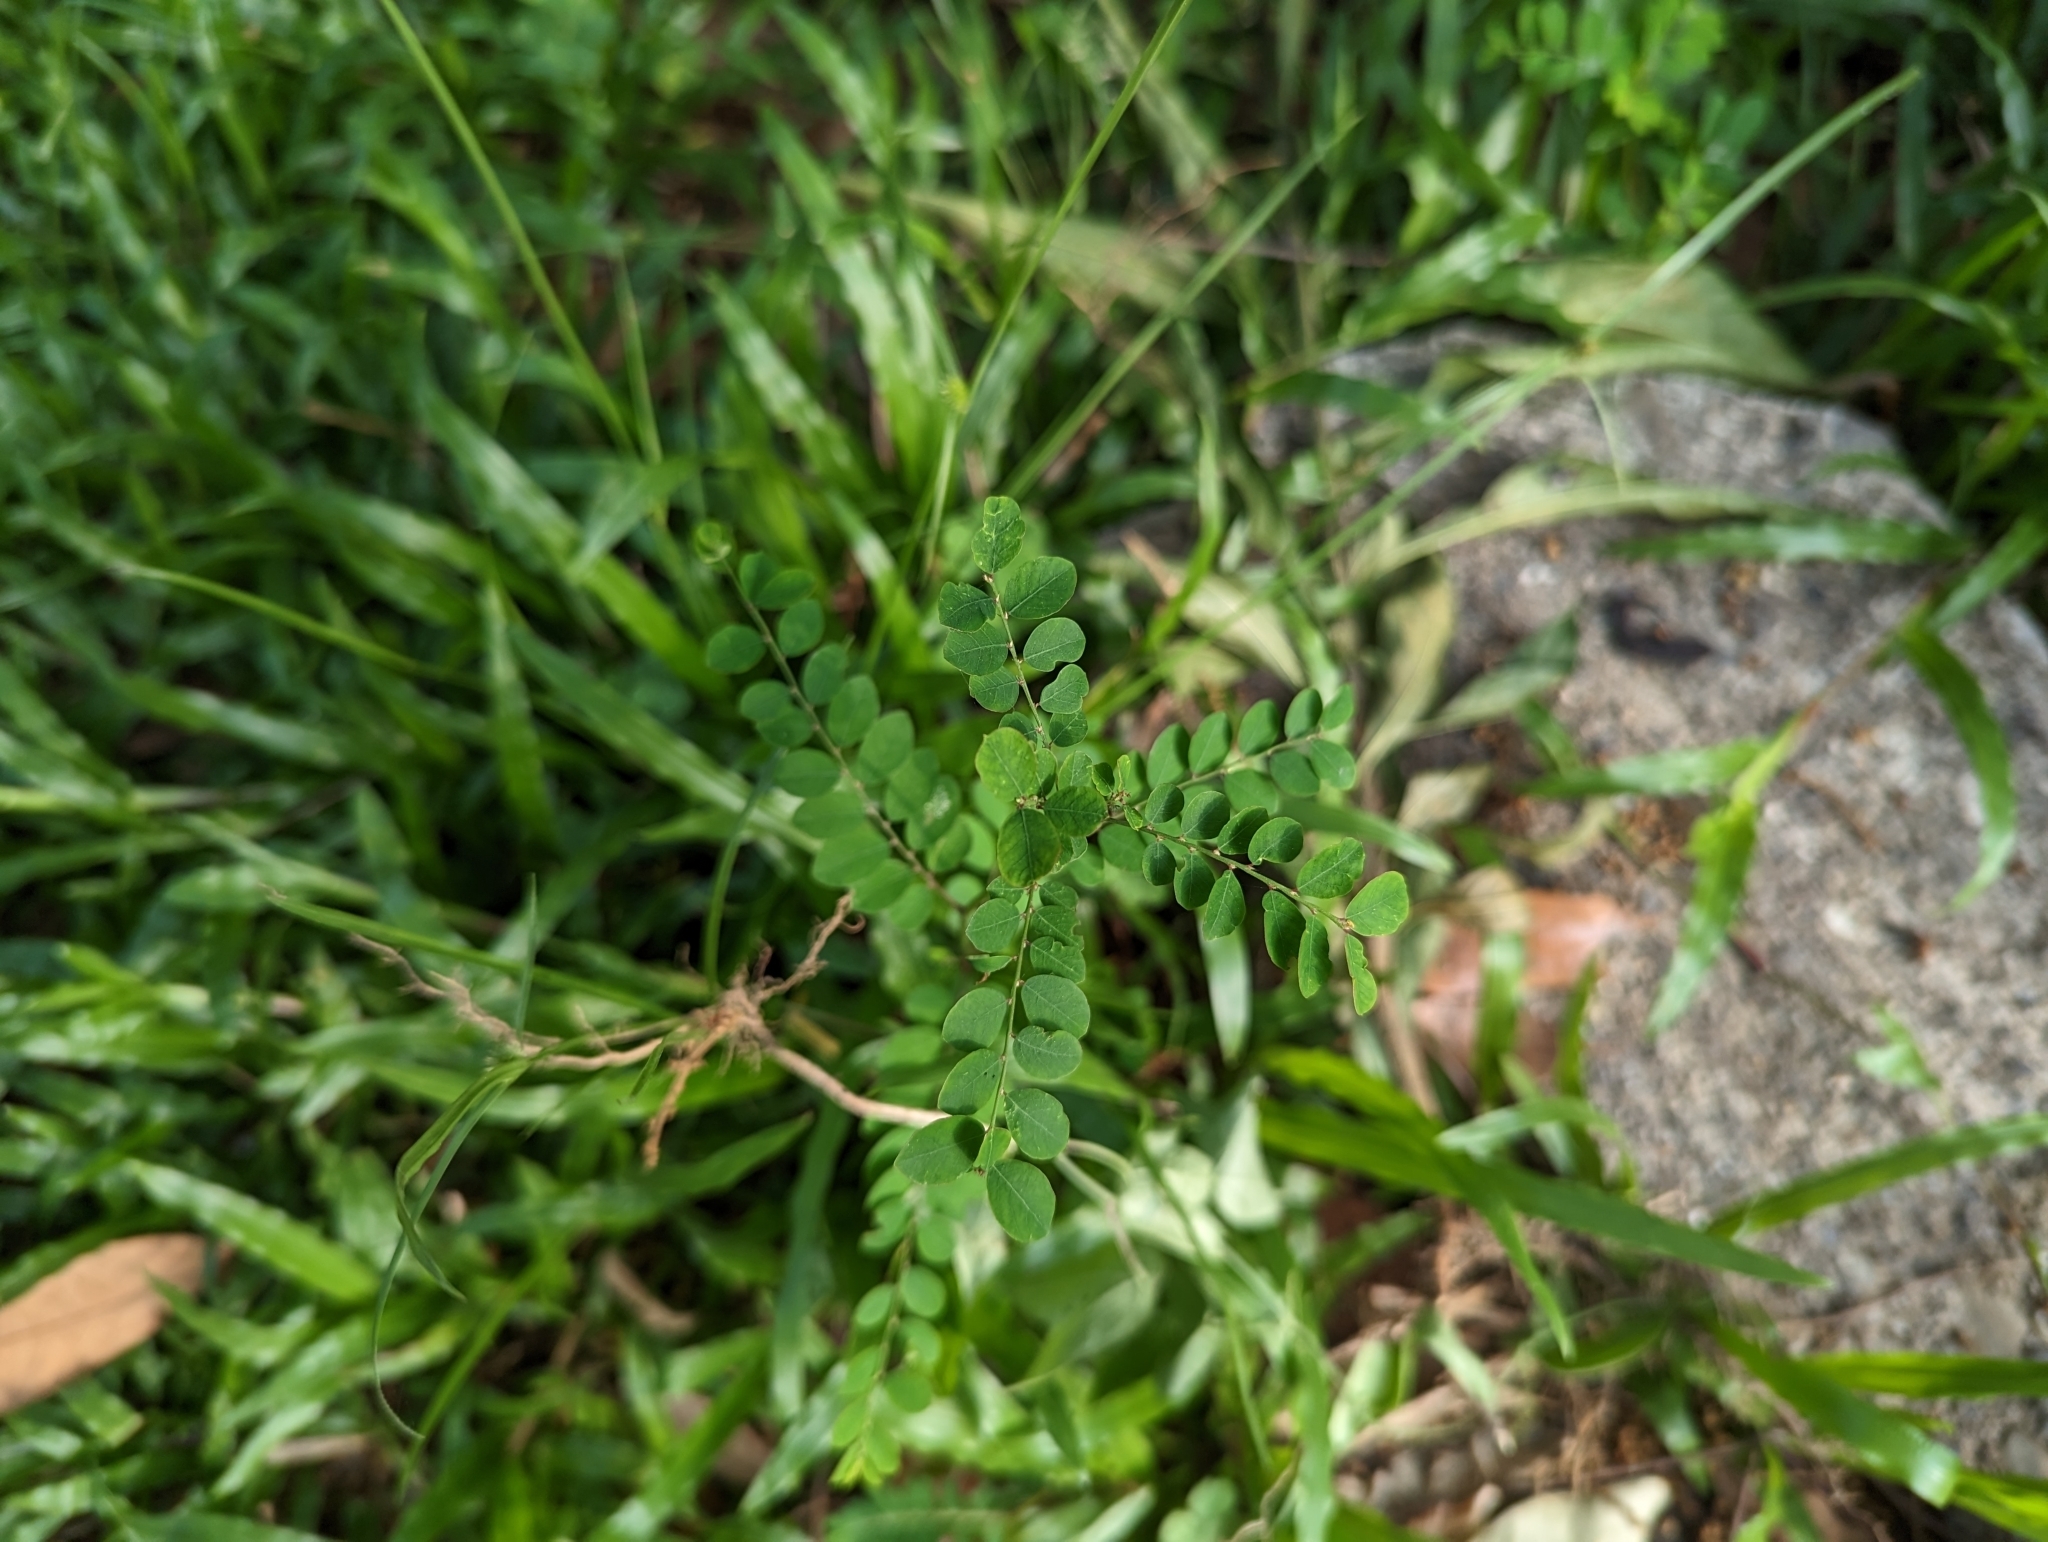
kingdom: Plantae
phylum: Tracheophyta
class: Magnoliopsida
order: Malpighiales
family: Phyllanthaceae
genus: Phyllanthus
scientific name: Phyllanthus tenellus
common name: Mascarene island leaf-flower
